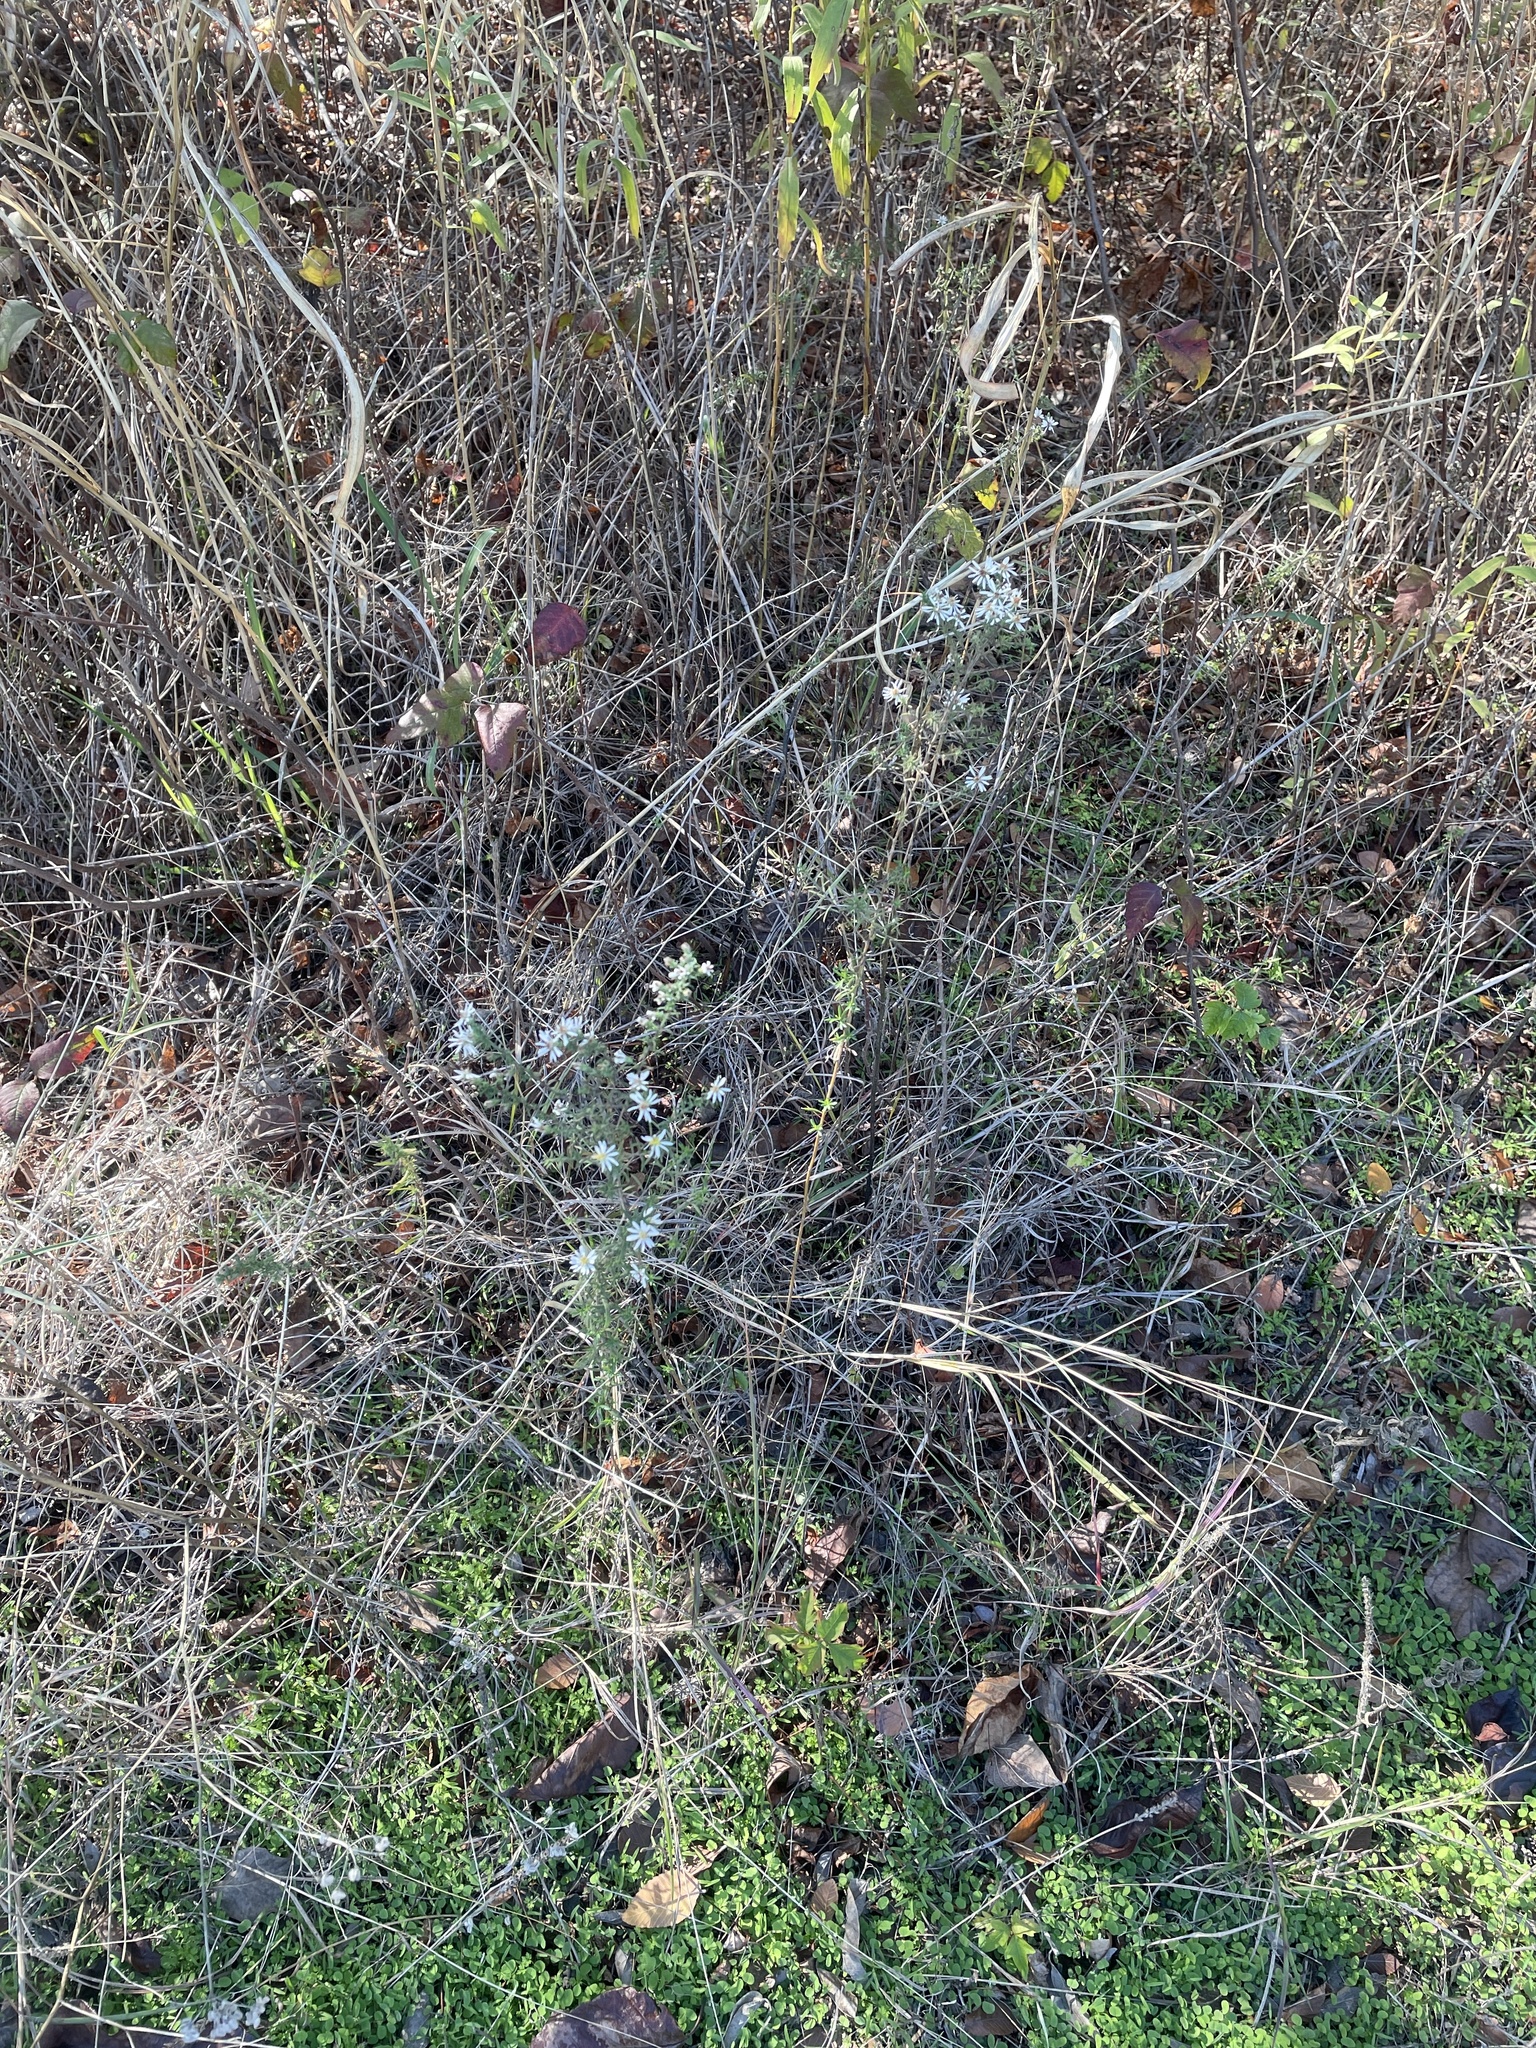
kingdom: Plantae
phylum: Tracheophyta
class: Magnoliopsida
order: Asterales
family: Asteraceae
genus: Symphyotrichum
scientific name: Symphyotrichum ericoides
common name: Heath aster
